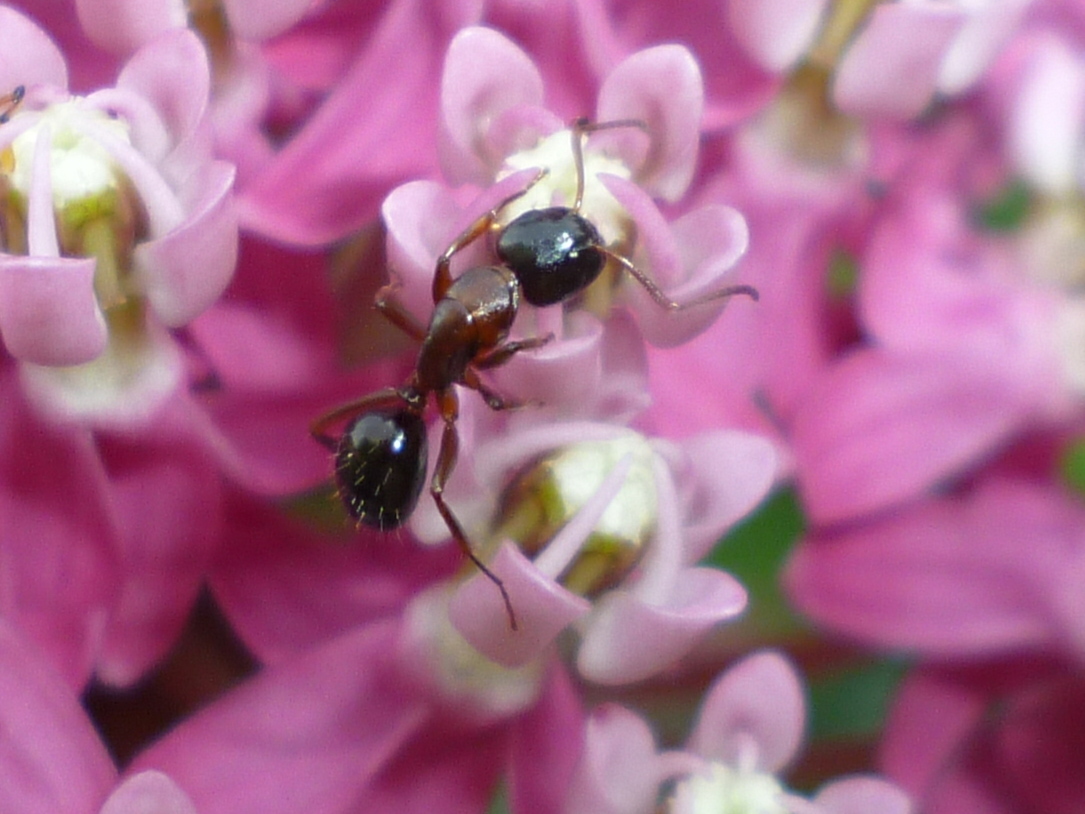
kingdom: Animalia
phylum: Arthropoda
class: Insecta
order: Hymenoptera
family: Formicidae
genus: Camponotus
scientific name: Camponotus nearcticus
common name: Smaller carpenter ant
